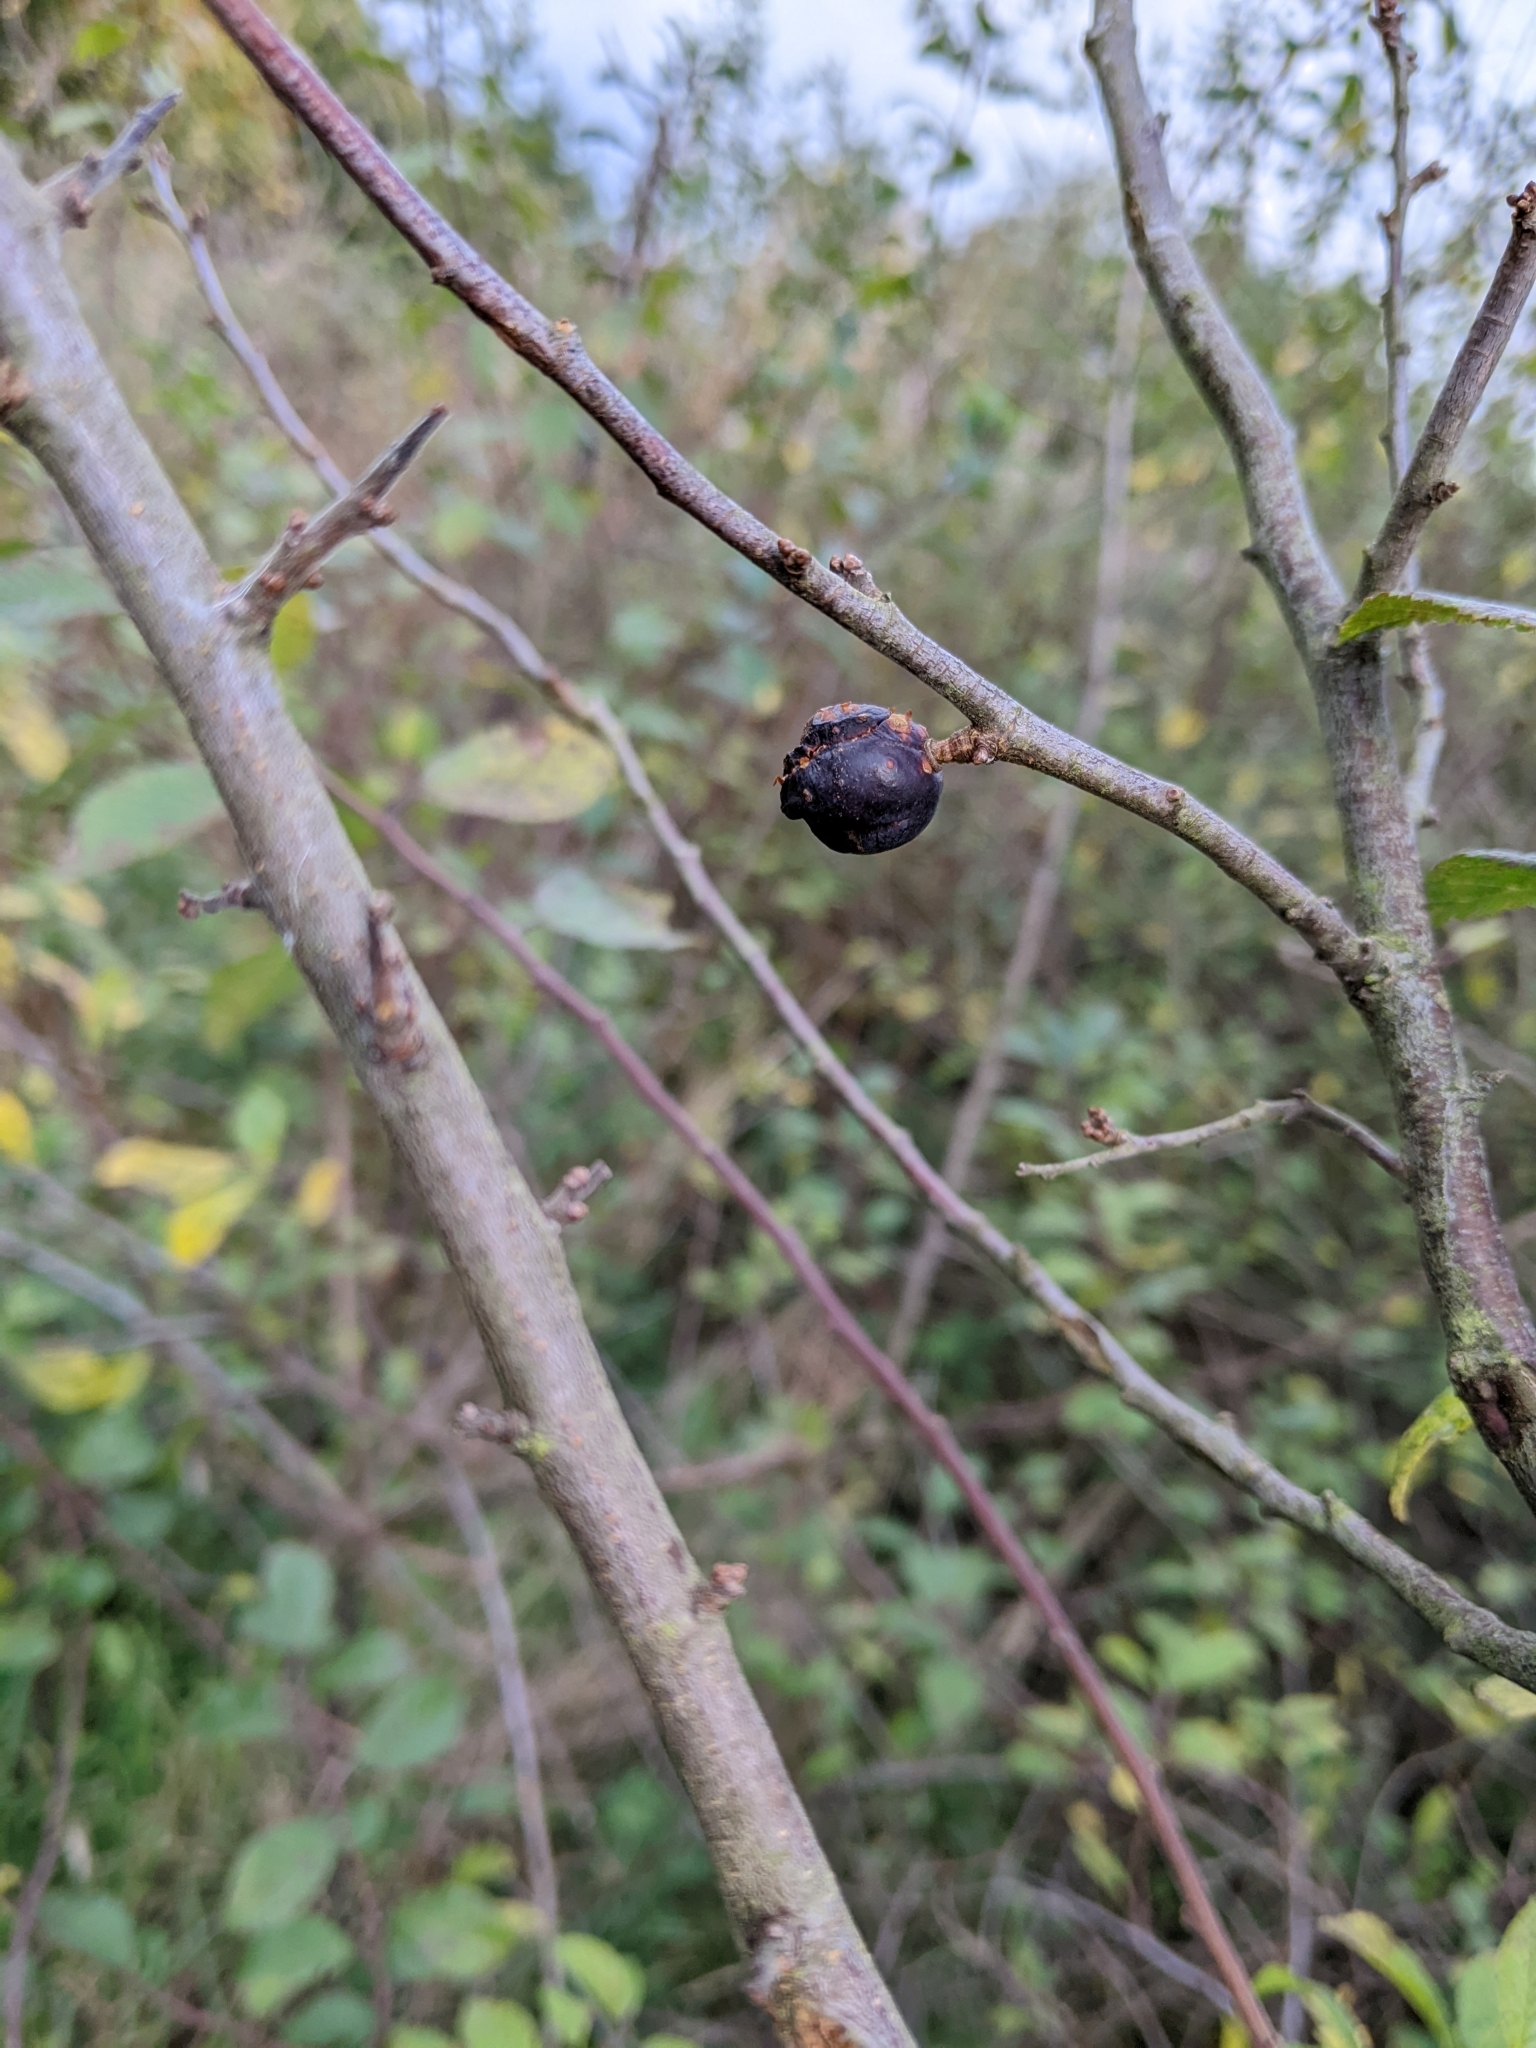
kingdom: Plantae
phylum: Tracheophyta
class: Magnoliopsida
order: Rosales
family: Rosaceae
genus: Prunus
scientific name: Prunus spinosa
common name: Blackthorn
